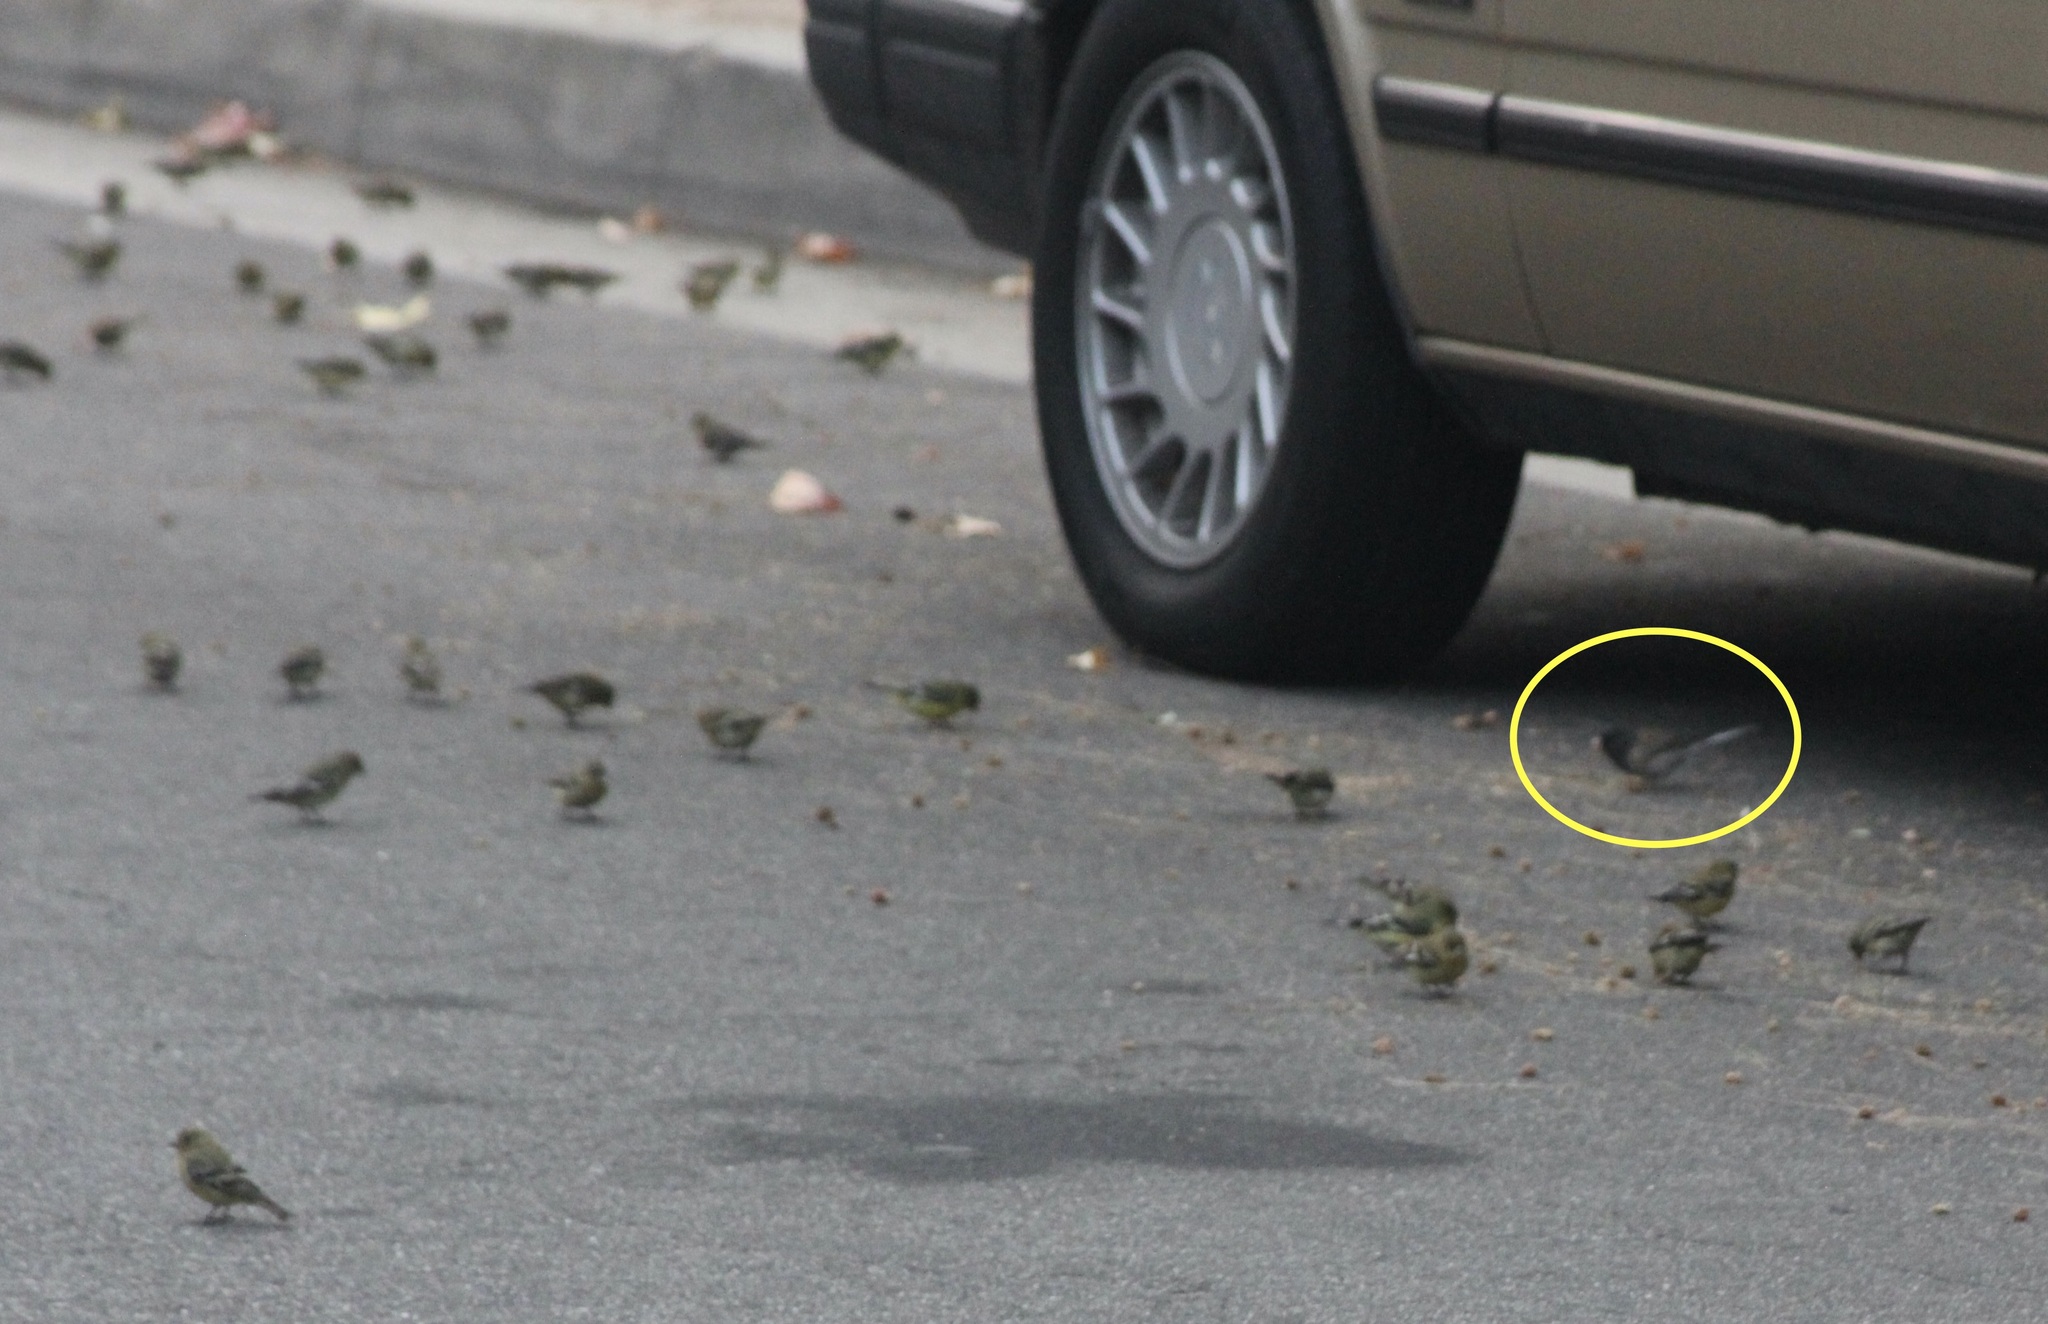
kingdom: Animalia
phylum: Chordata
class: Aves
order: Passeriformes
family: Passerellidae
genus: Junco
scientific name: Junco hyemalis
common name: Dark-eyed junco
